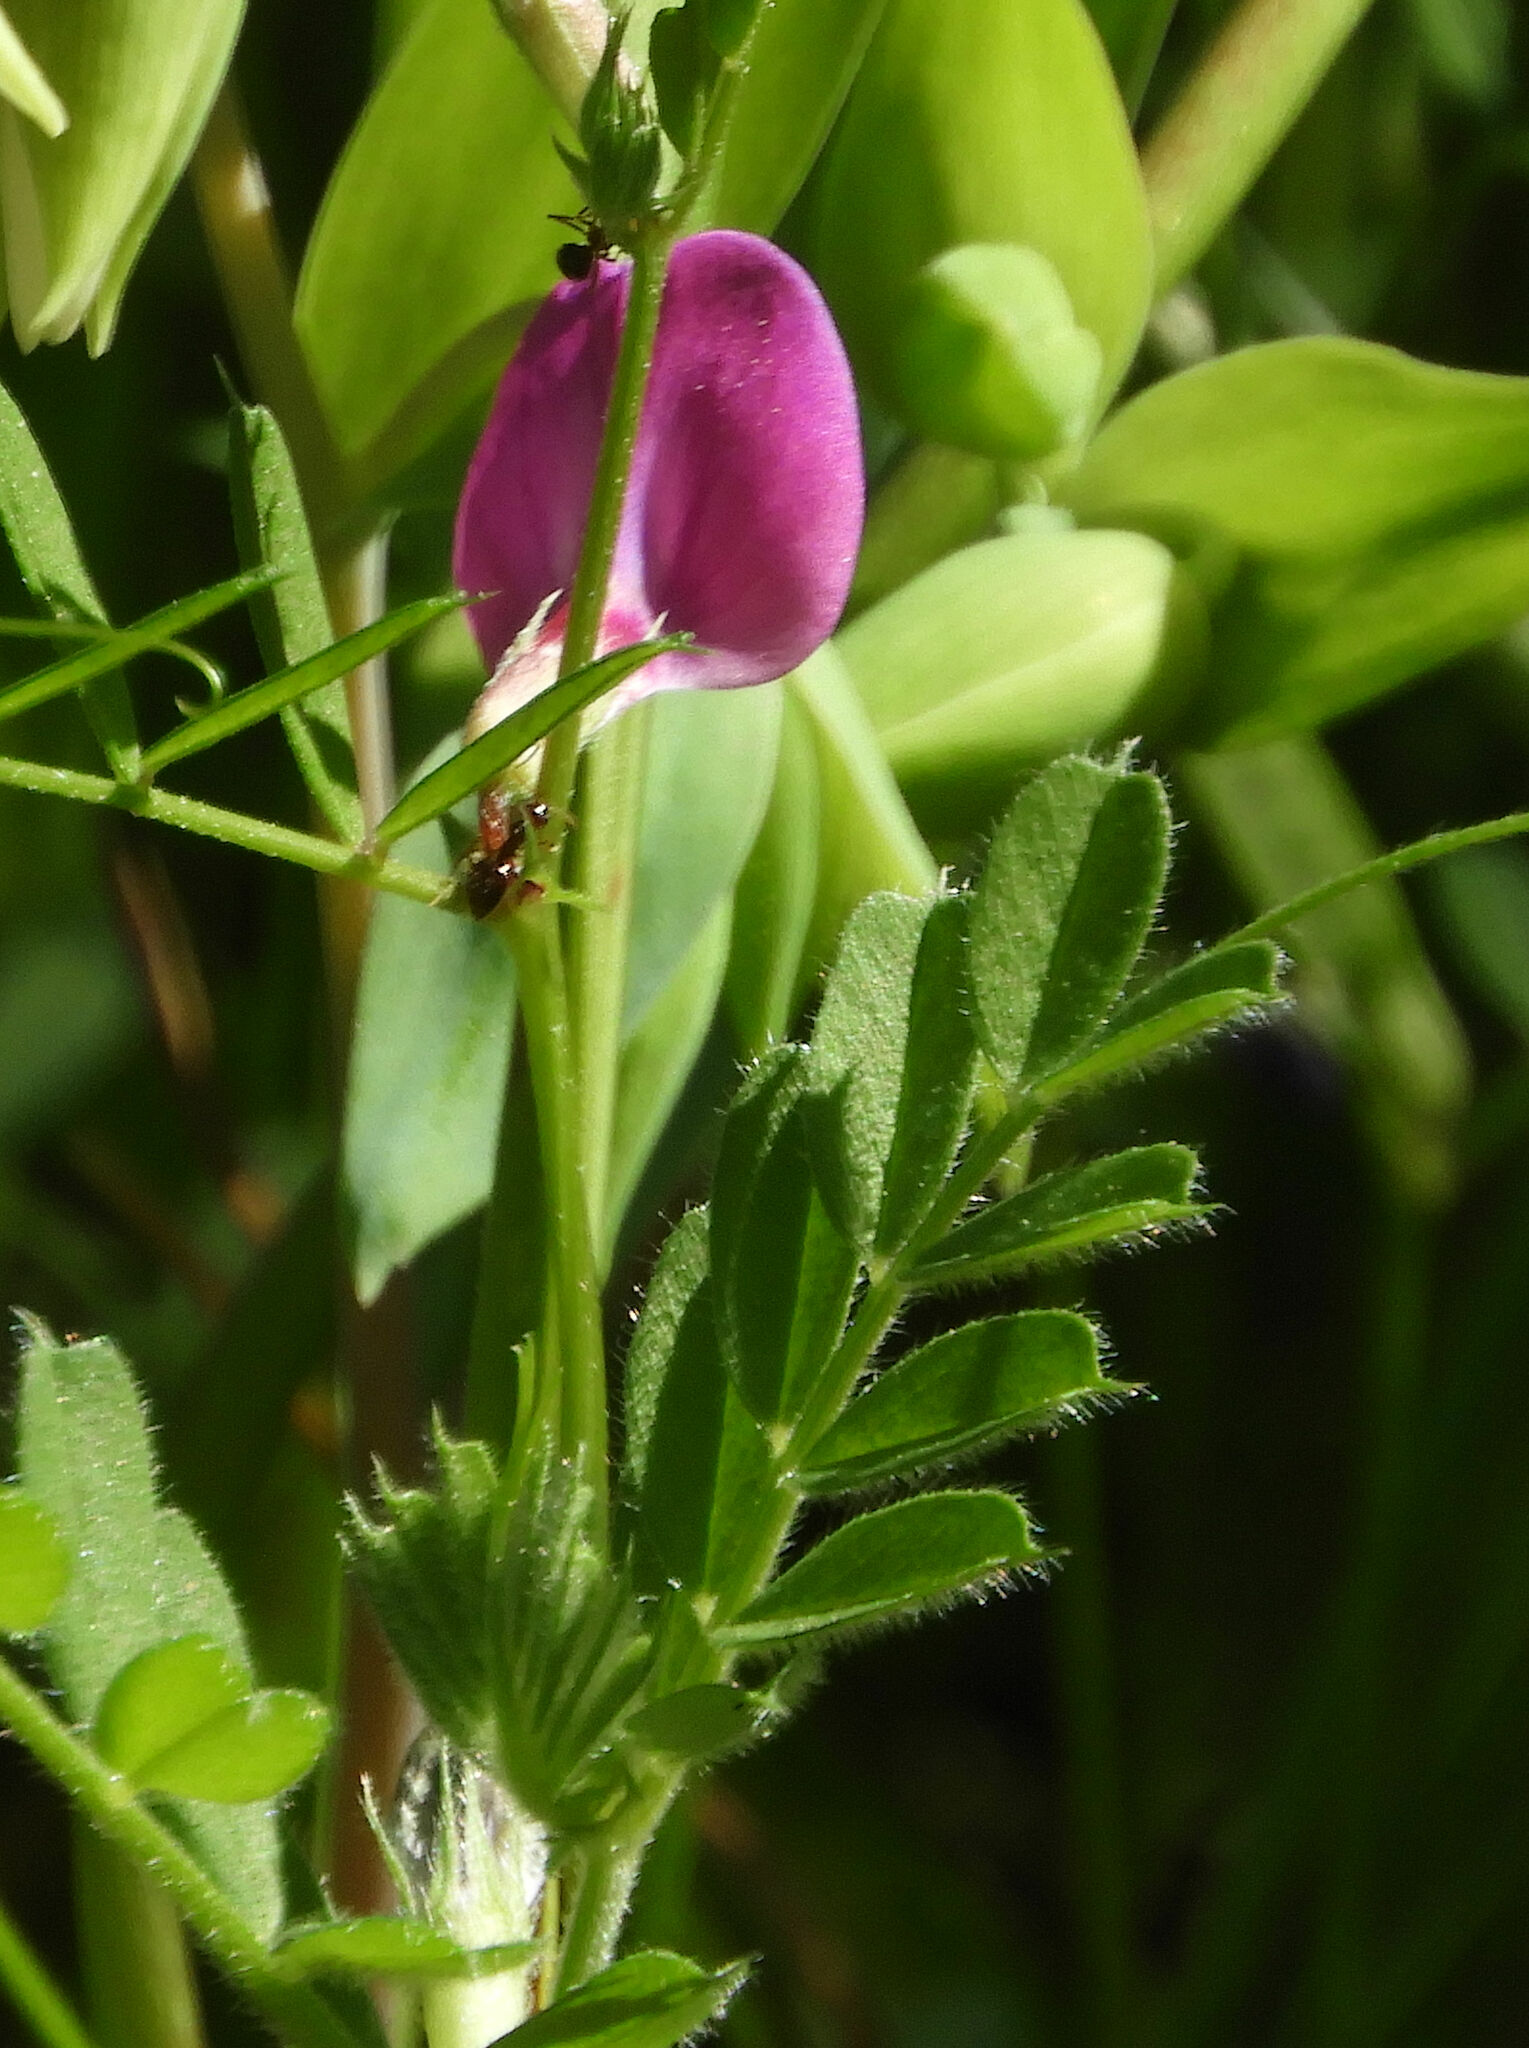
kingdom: Plantae
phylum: Tracheophyta
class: Magnoliopsida
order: Fabales
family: Fabaceae
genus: Vicia
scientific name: Vicia sativa
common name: Garden vetch
